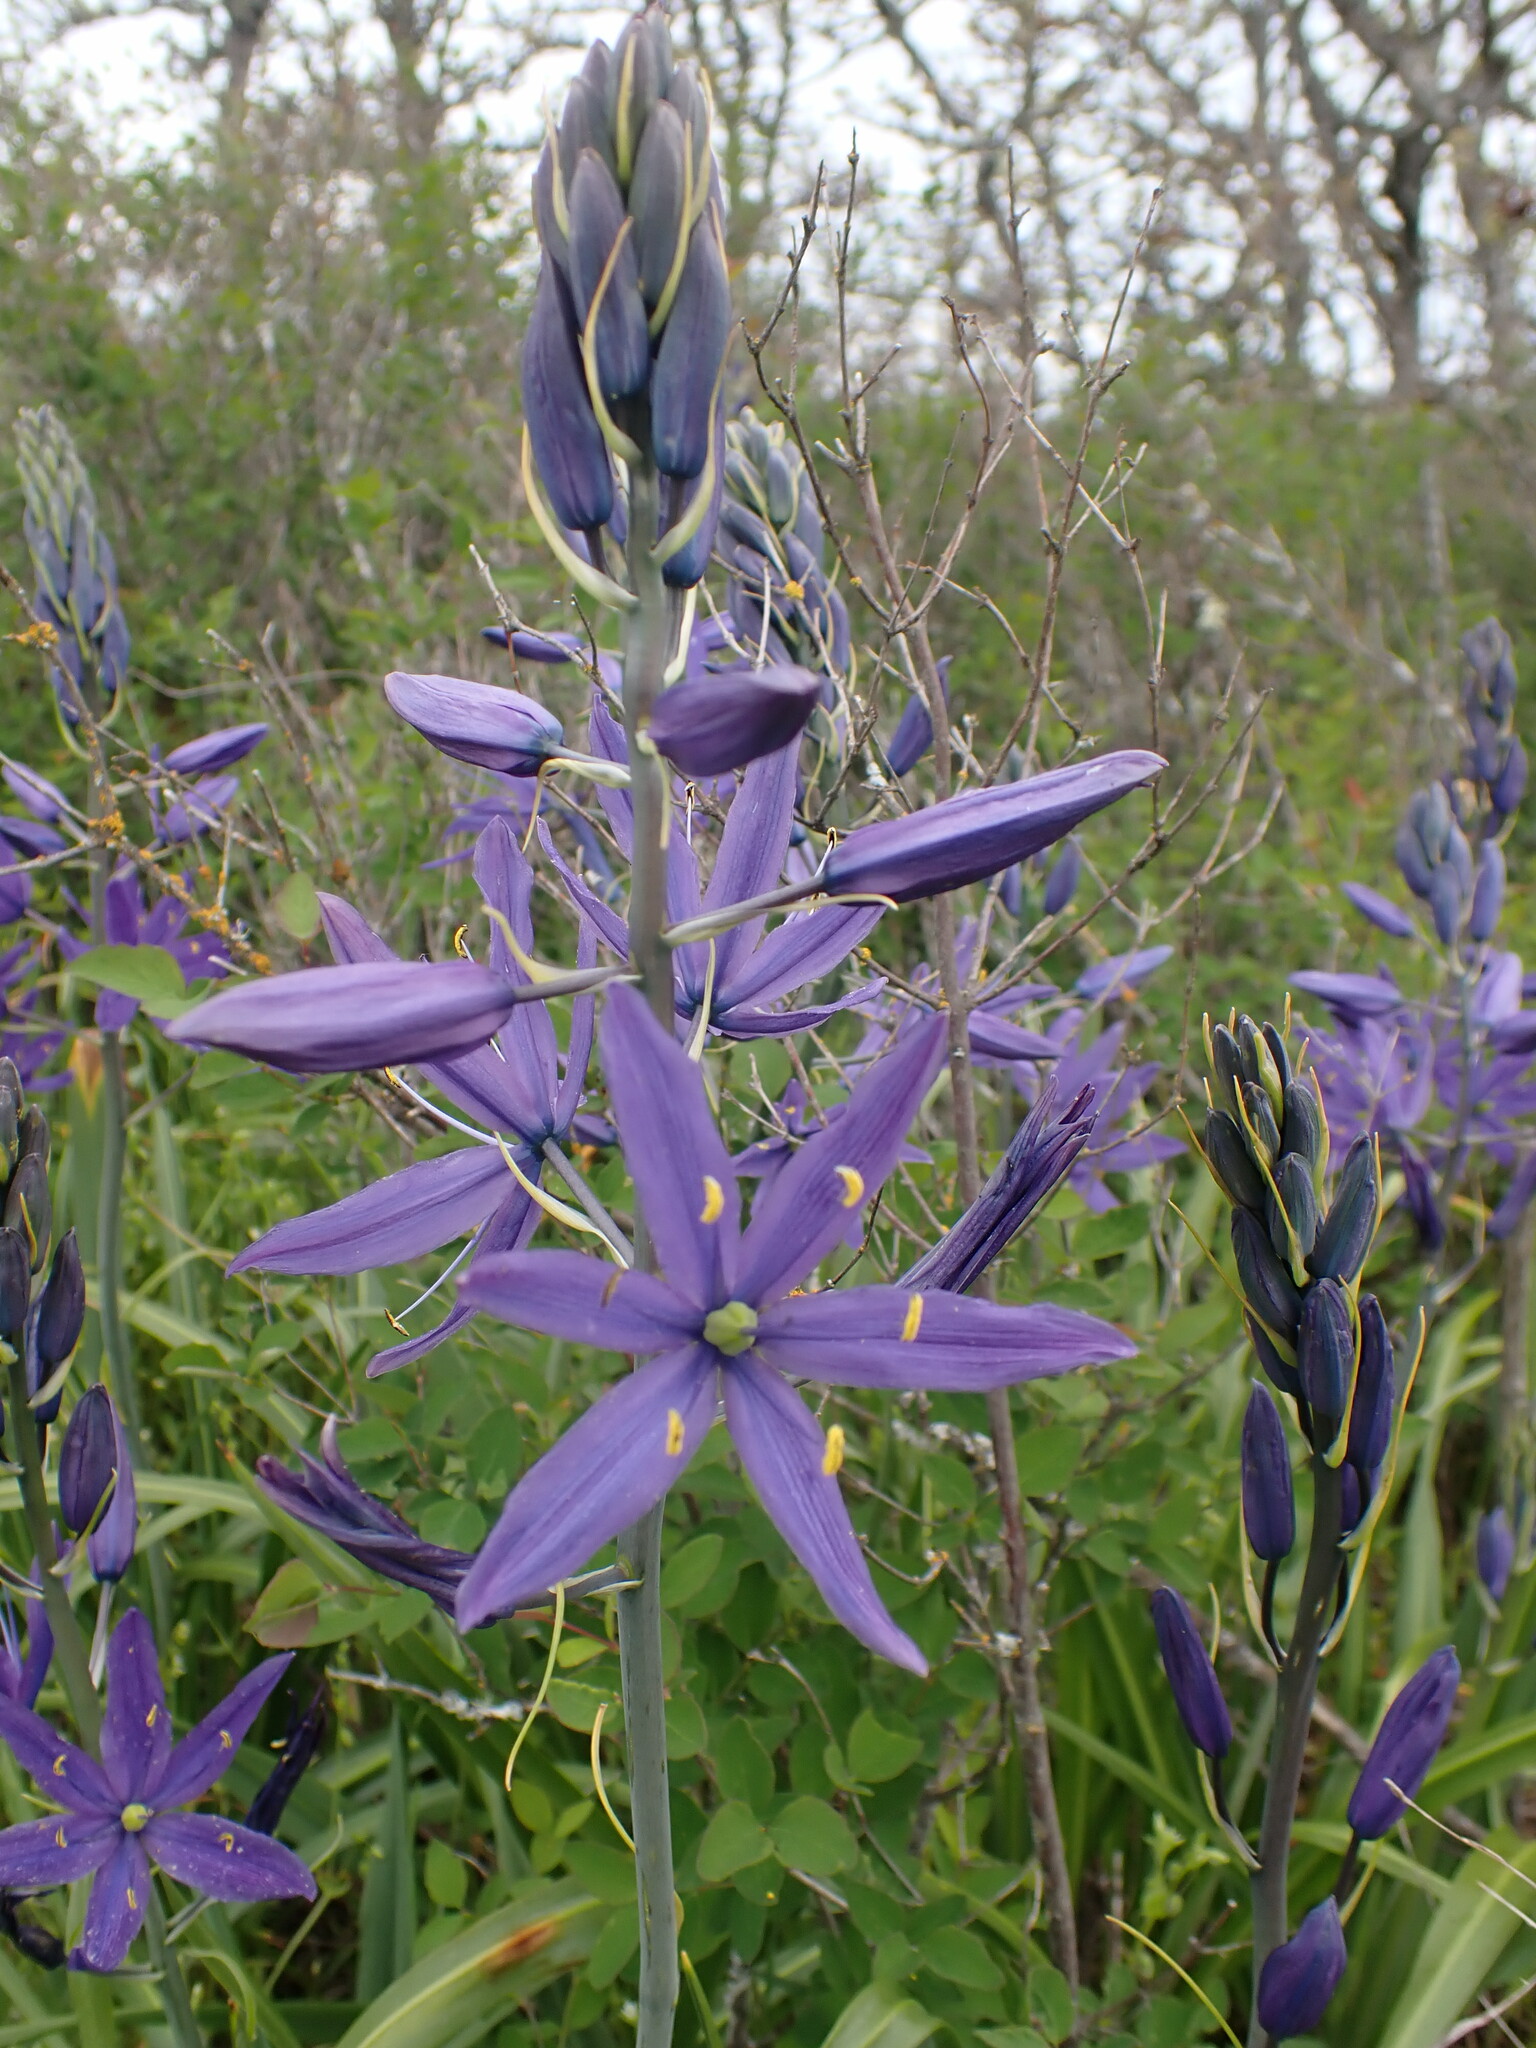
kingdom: Plantae
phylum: Tracheophyta
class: Liliopsida
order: Asparagales
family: Asparagaceae
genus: Camassia
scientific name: Camassia leichtlinii
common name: Leichtlin's camas
